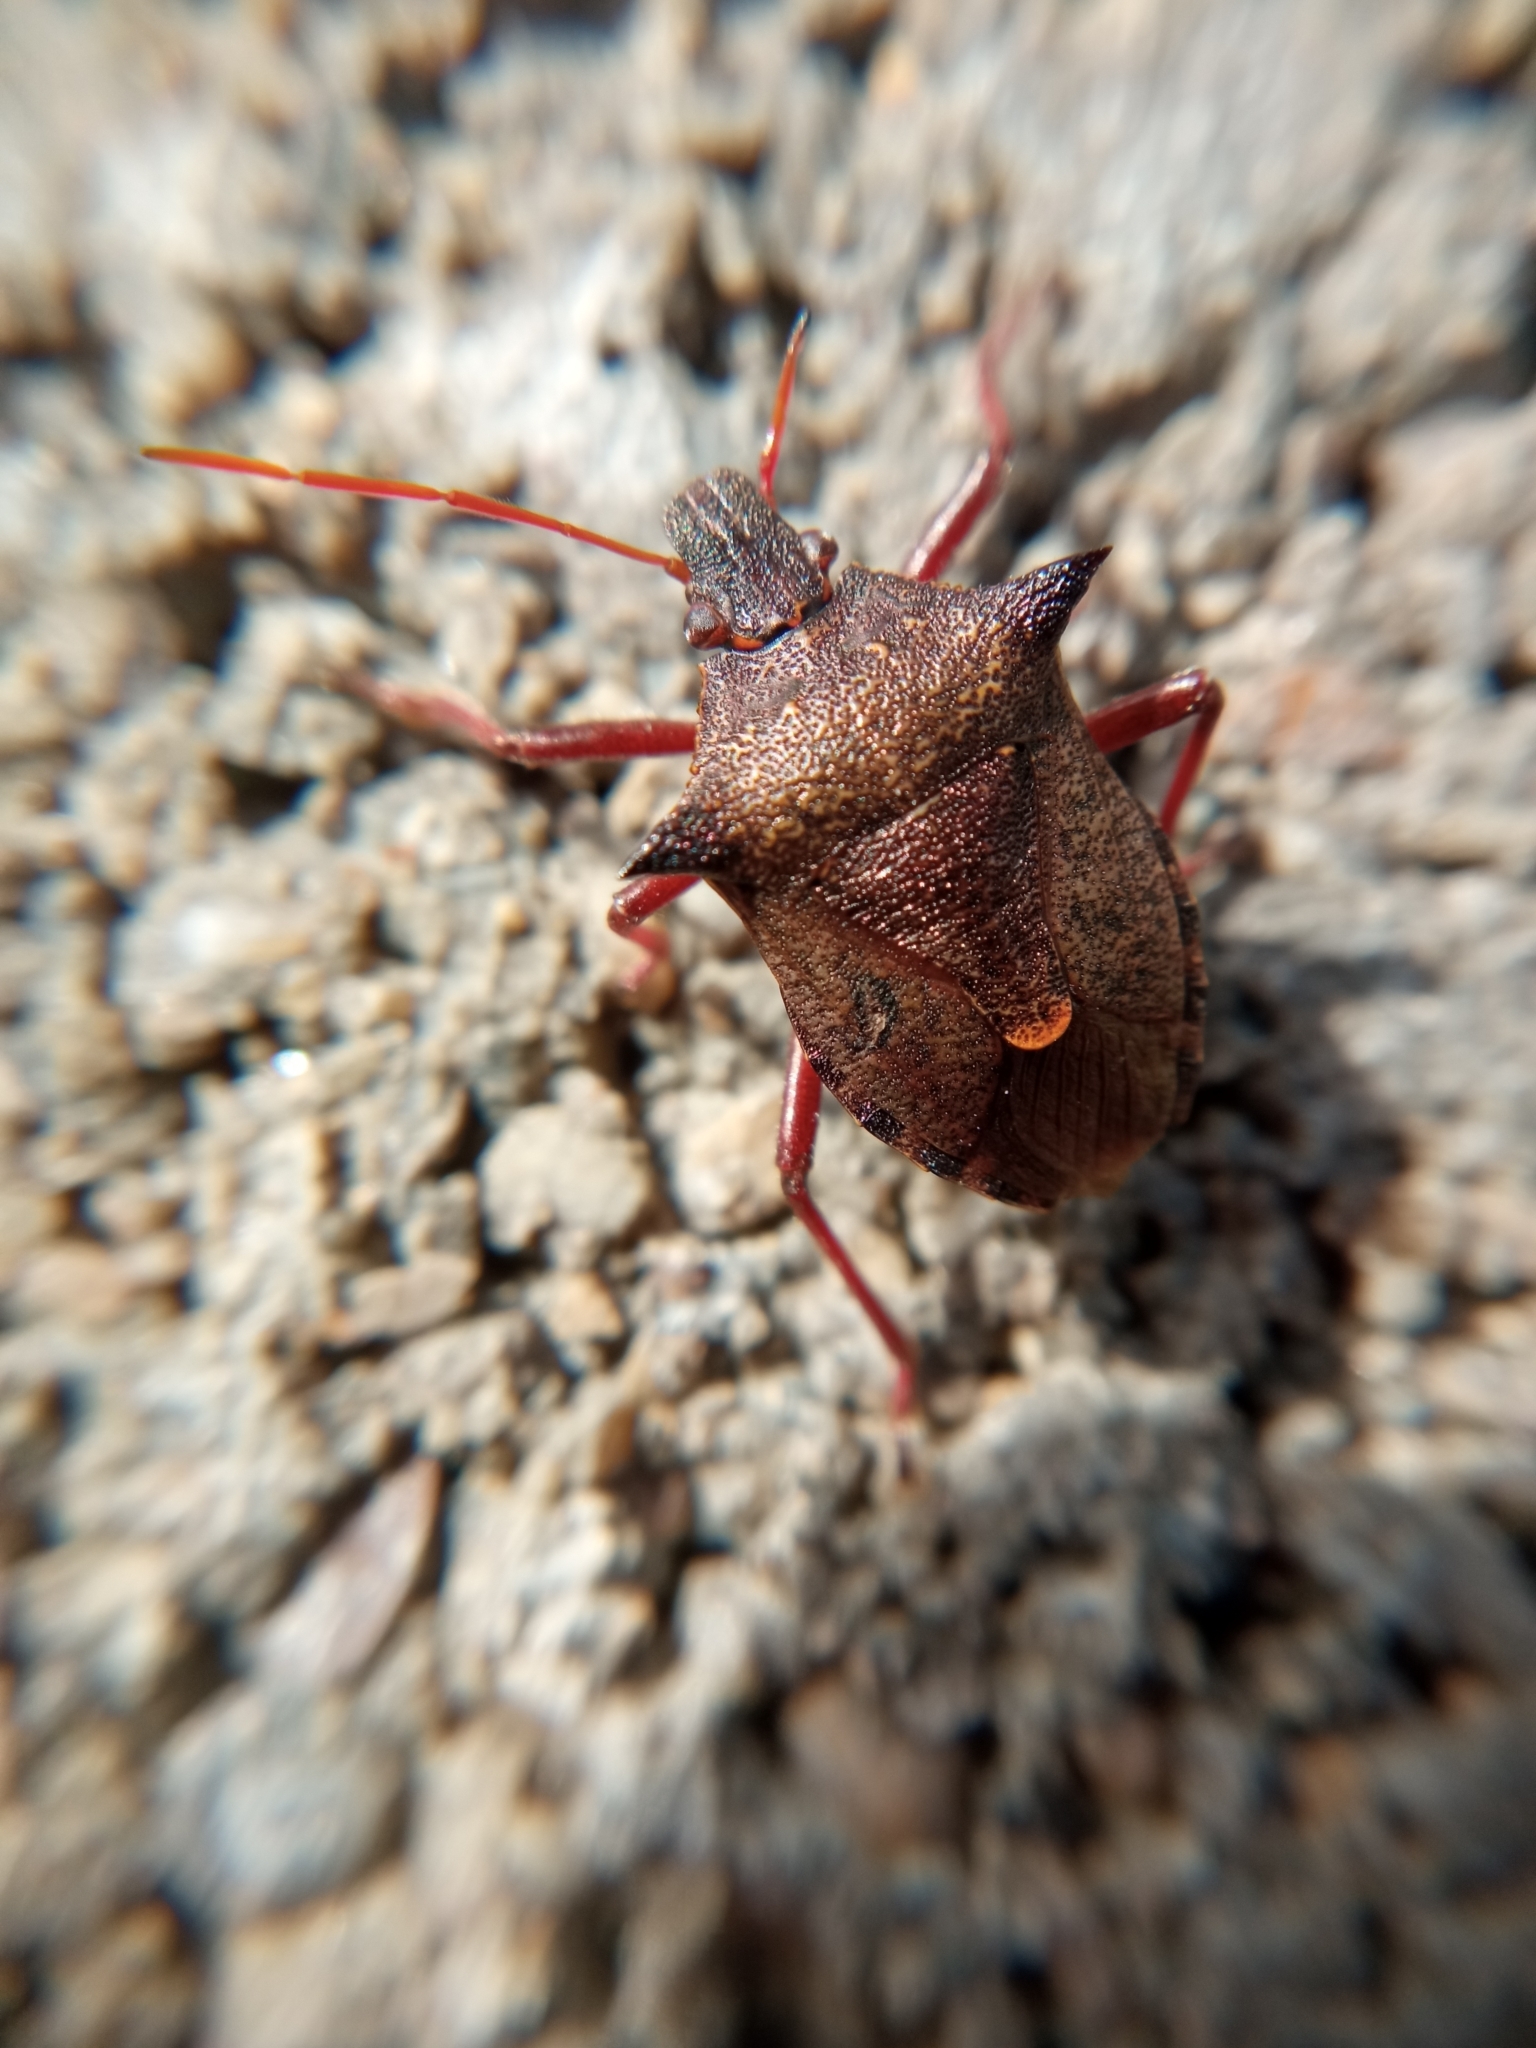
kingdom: Animalia
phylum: Arthropoda
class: Insecta
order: Hemiptera
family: Pentatomidae
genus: Picromerus
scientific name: Picromerus bidens
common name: Spiked shieldbug
